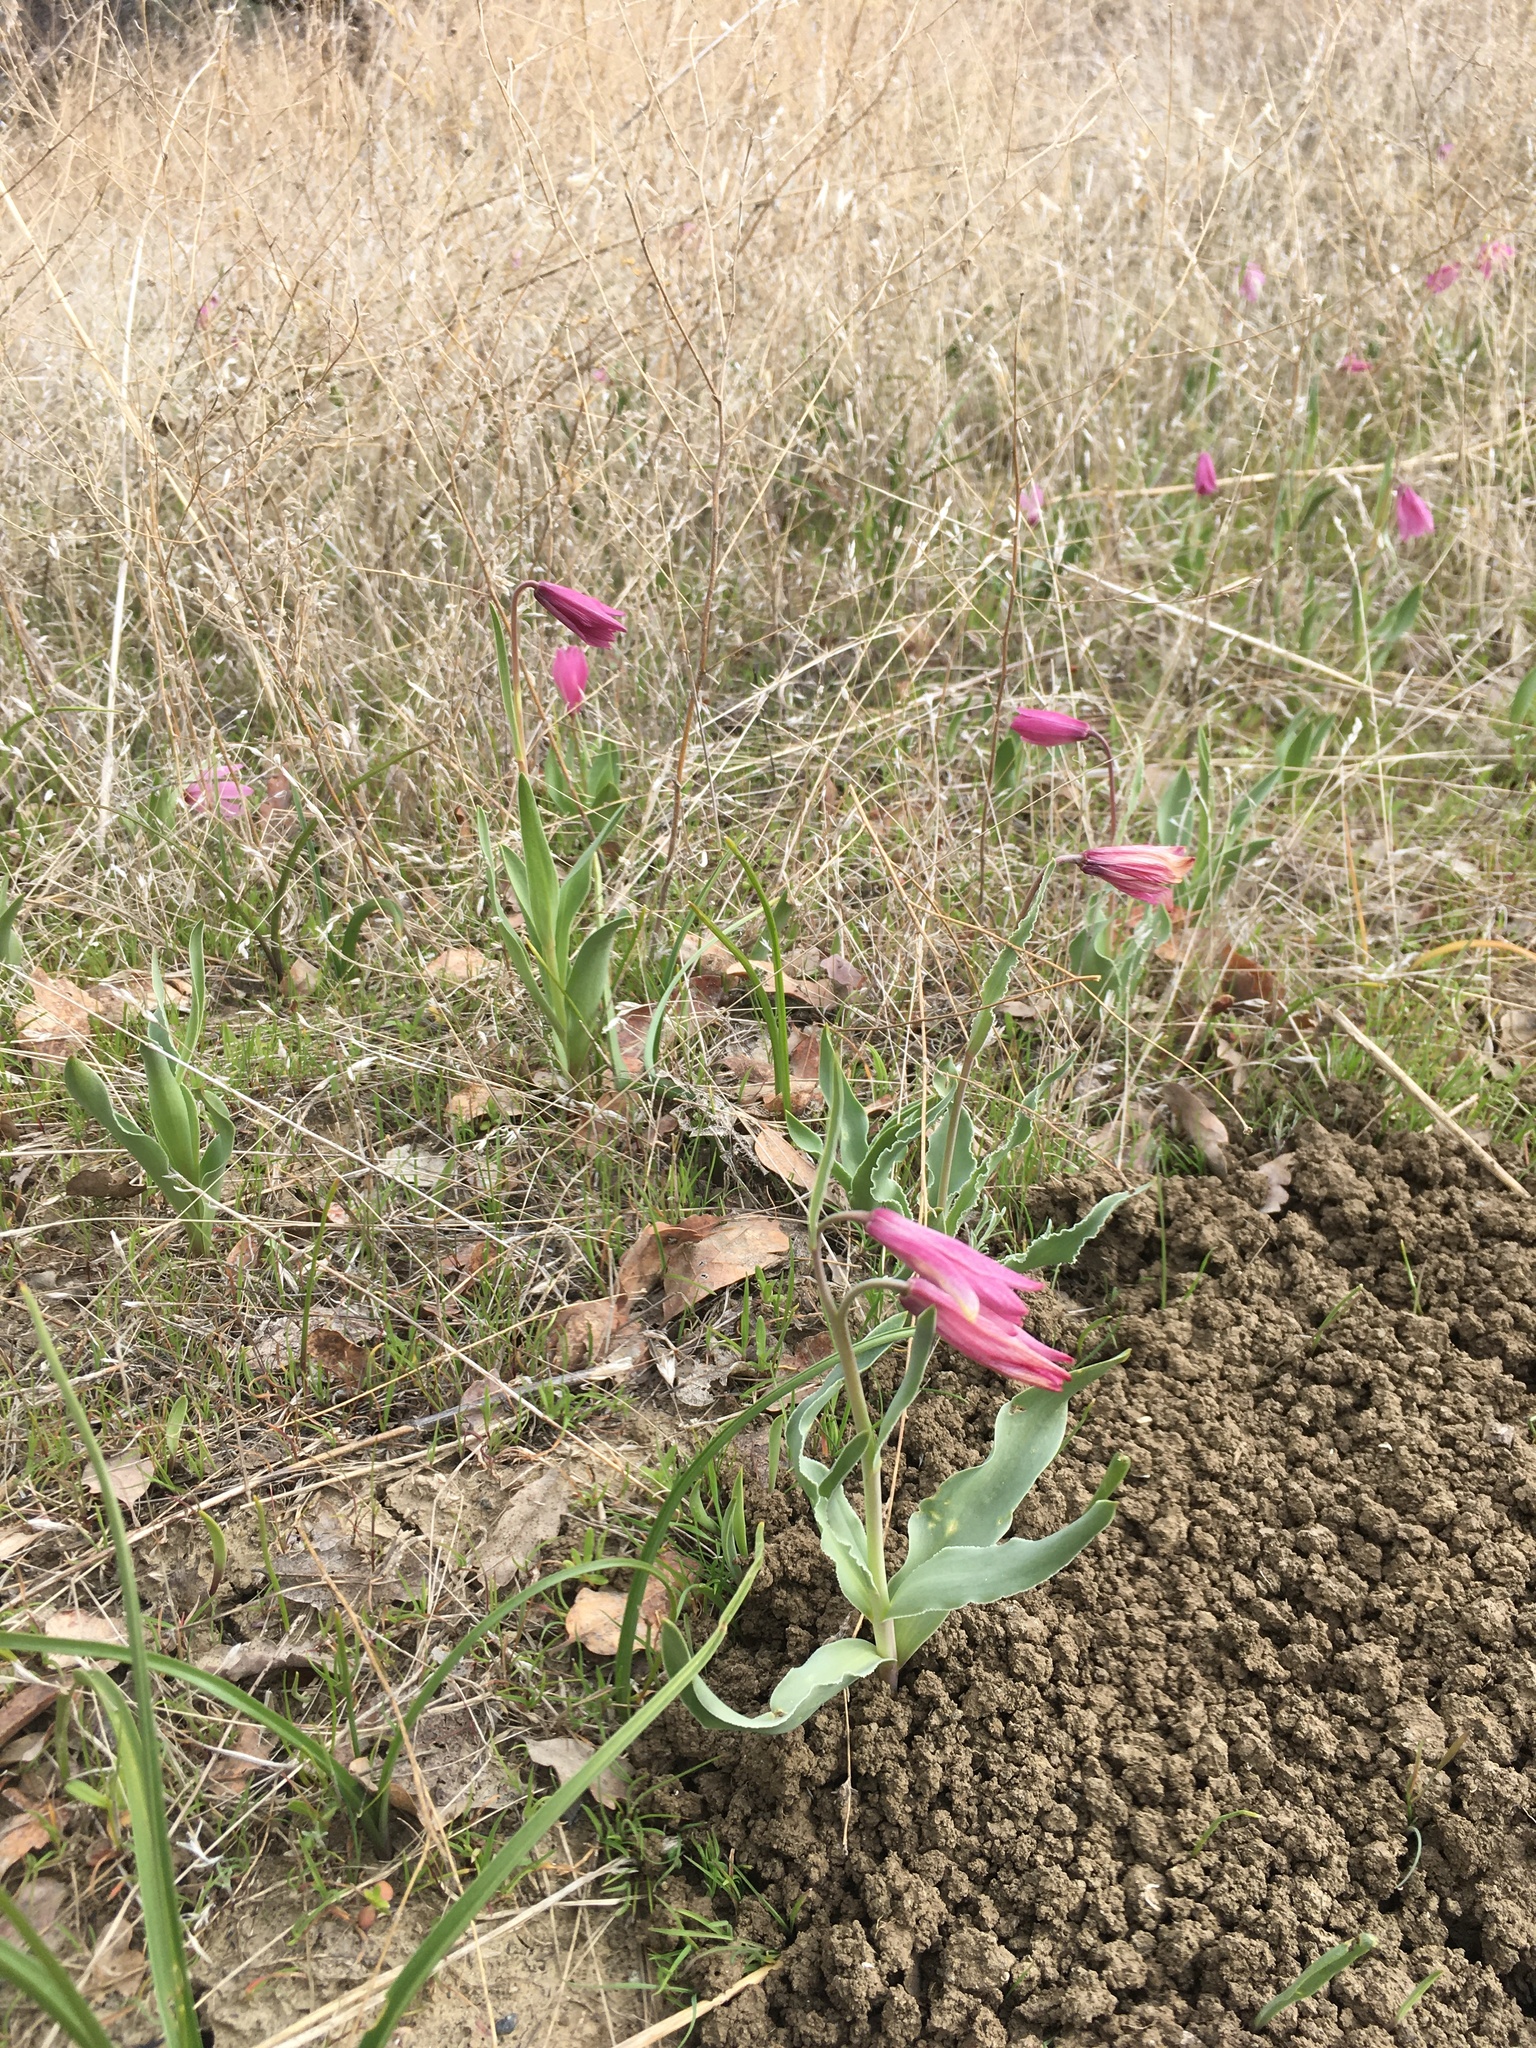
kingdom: Plantae
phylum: Tracheophyta
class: Liliopsida
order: Liliales
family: Liliaceae
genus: Fritillaria
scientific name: Fritillaria pluriflora
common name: Adobe-lily
